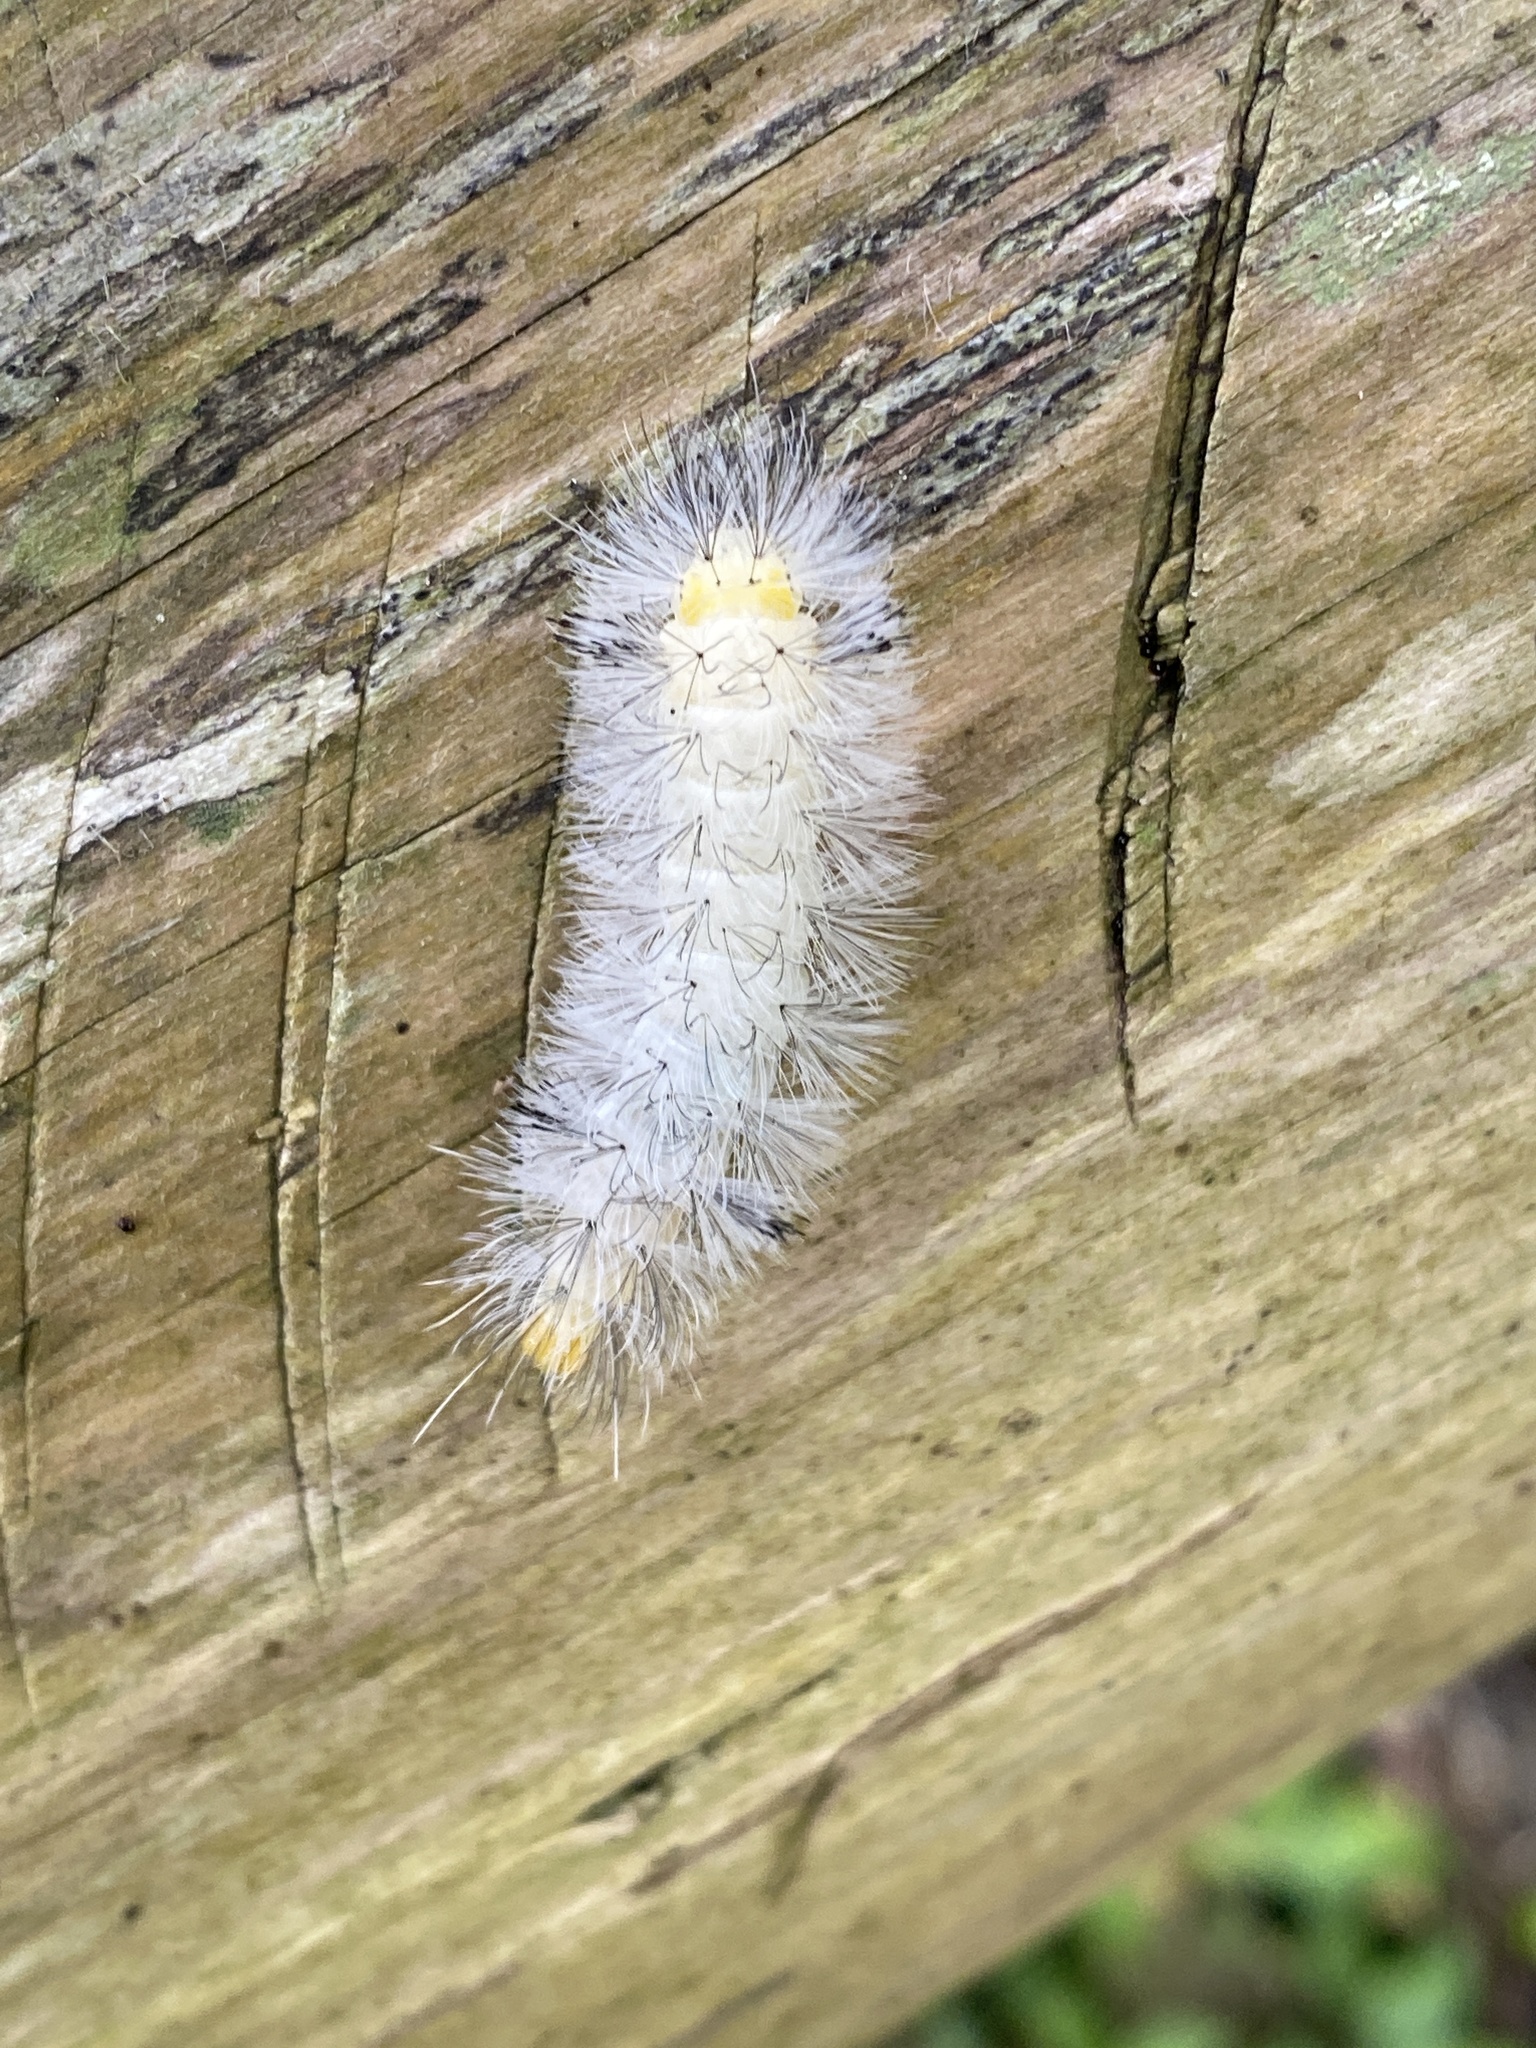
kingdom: Animalia
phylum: Arthropoda
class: Insecta
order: Lepidoptera
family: Erebidae
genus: Cosmosoma
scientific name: Cosmosoma myrodora
